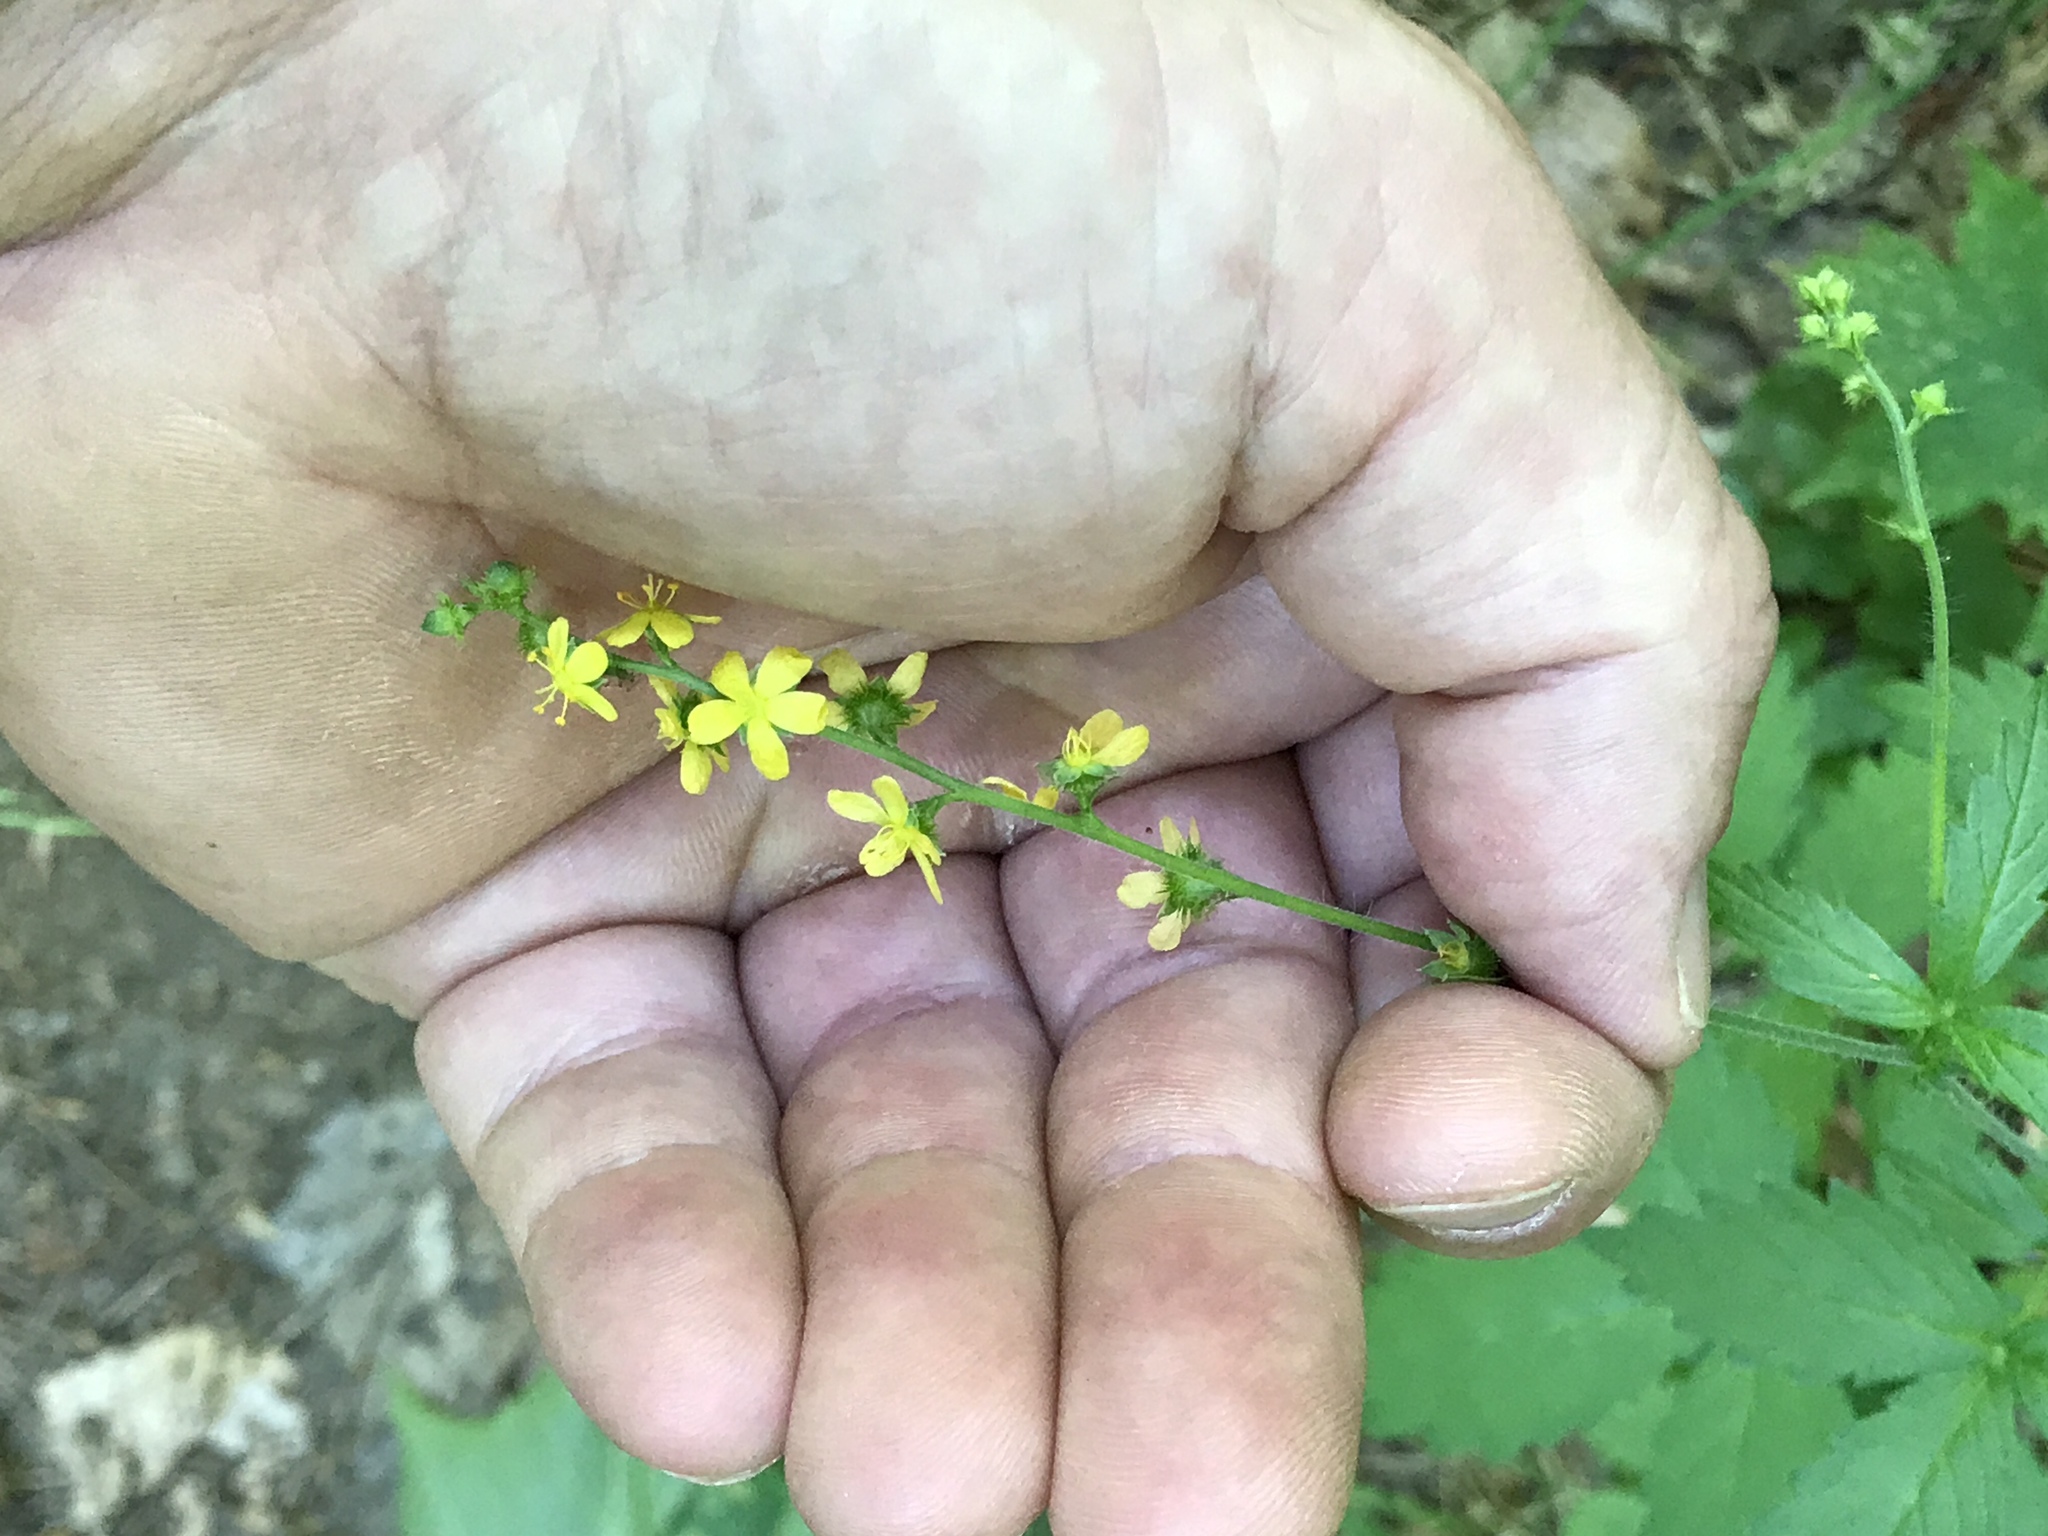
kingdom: Plantae
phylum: Tracheophyta
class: Magnoliopsida
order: Rosales
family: Rosaceae
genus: Agrimonia
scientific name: Agrimonia gryposepala
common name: Common agrimony
